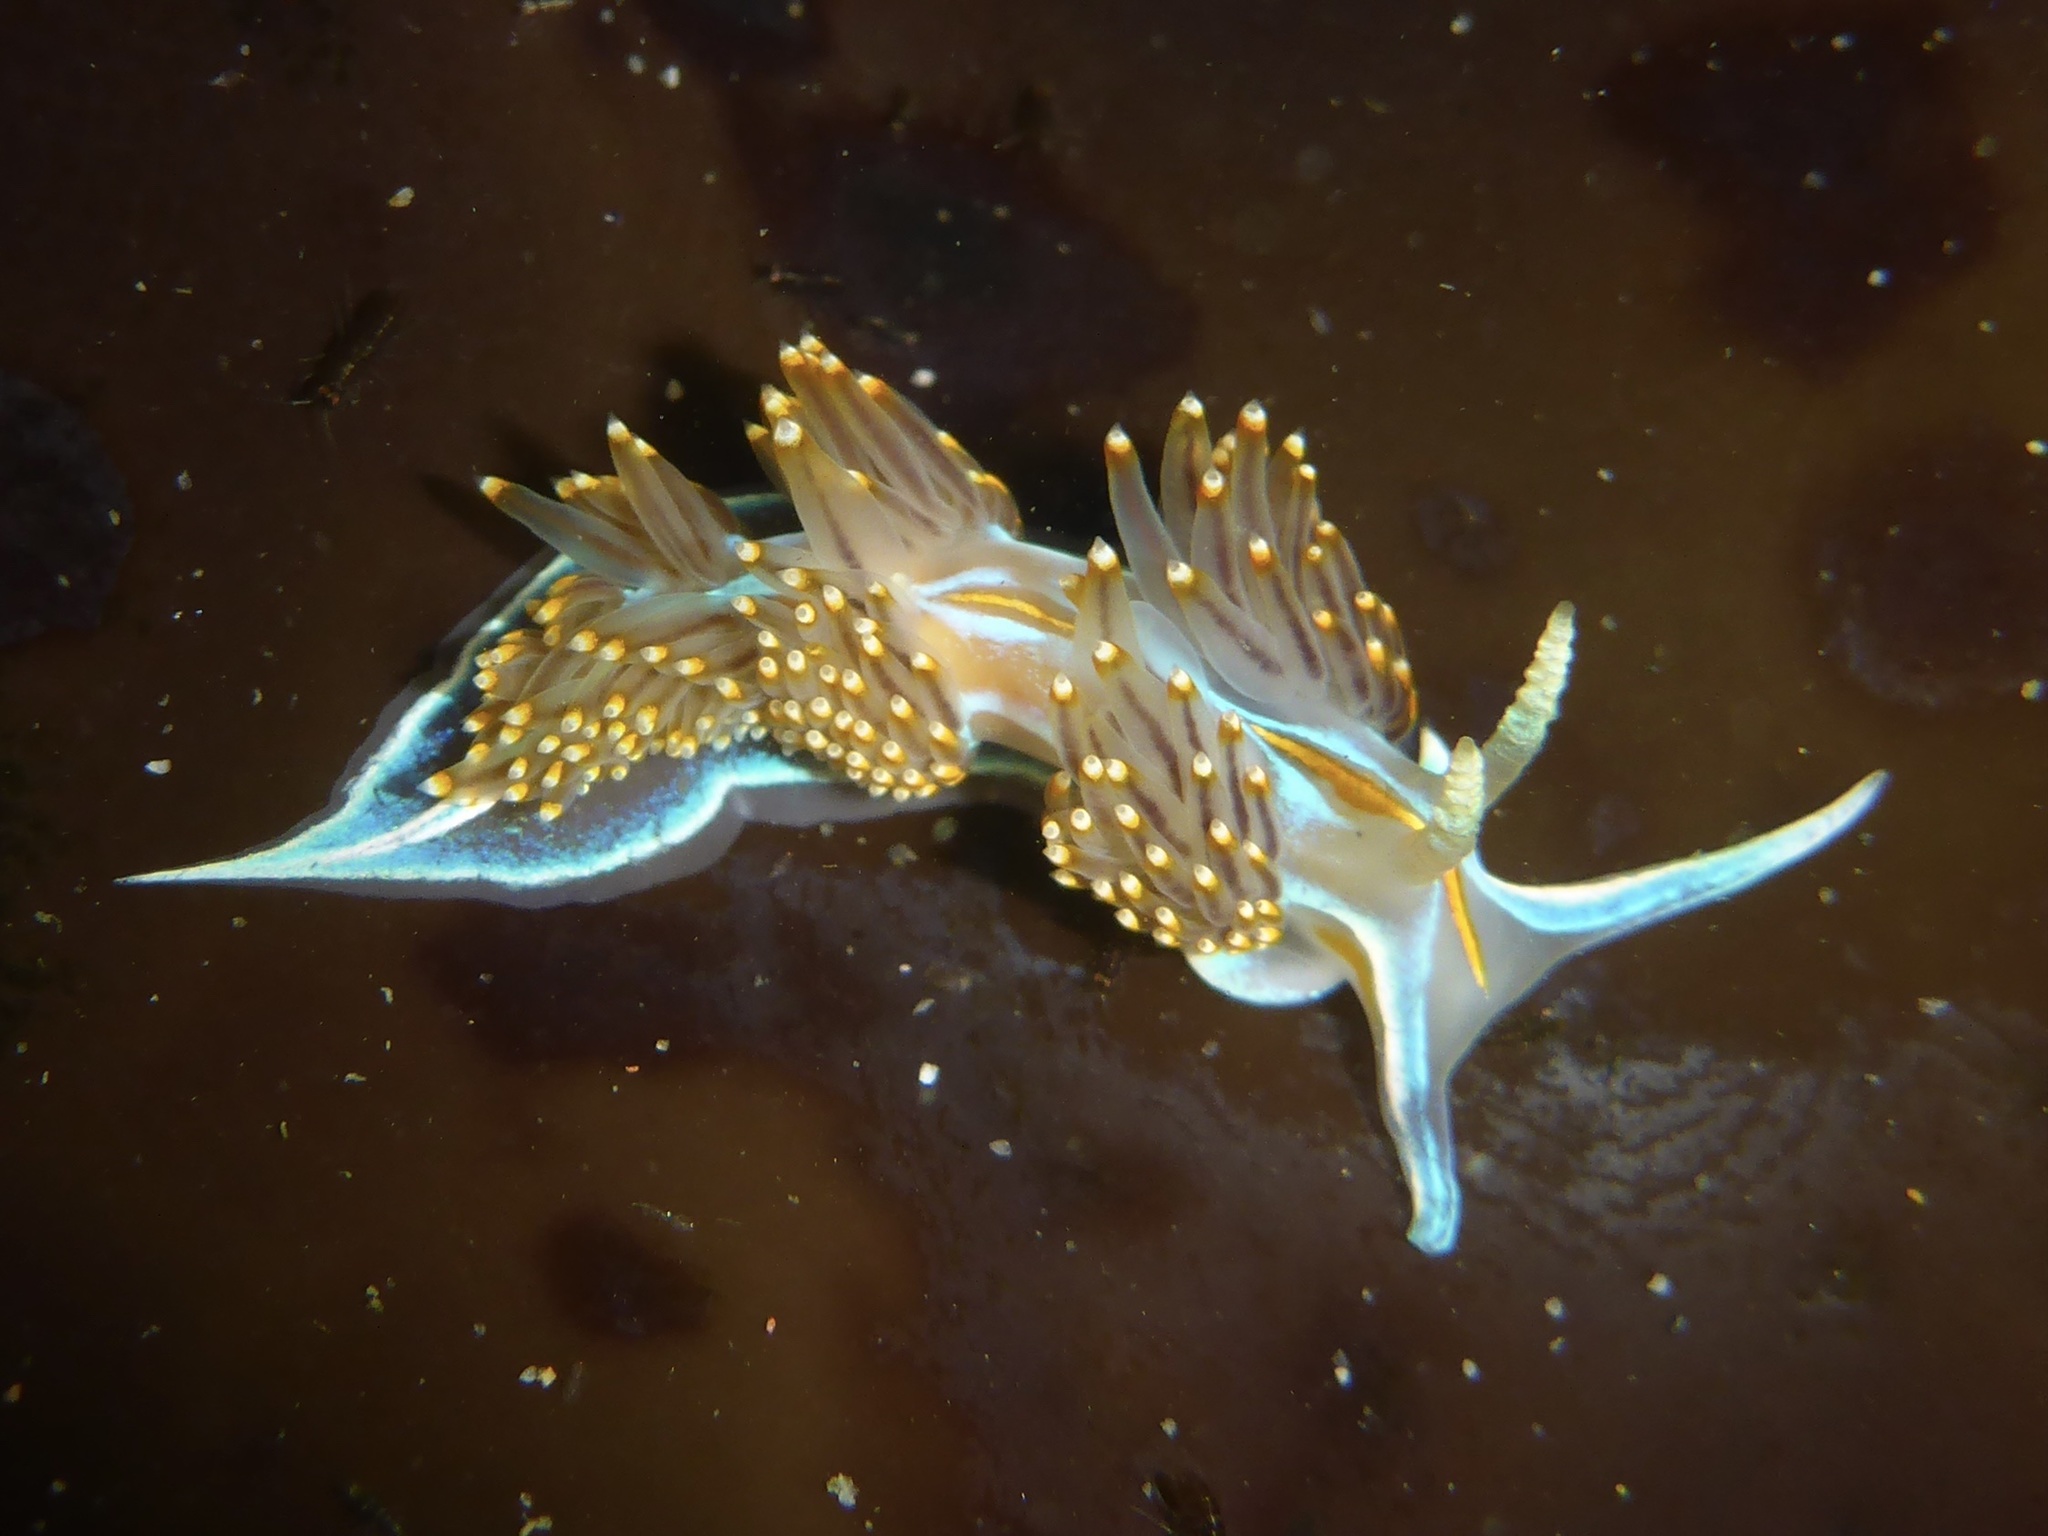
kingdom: Animalia
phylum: Mollusca
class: Gastropoda
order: Nudibranchia
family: Myrrhinidae
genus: Hermissenda
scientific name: Hermissenda opalescens
